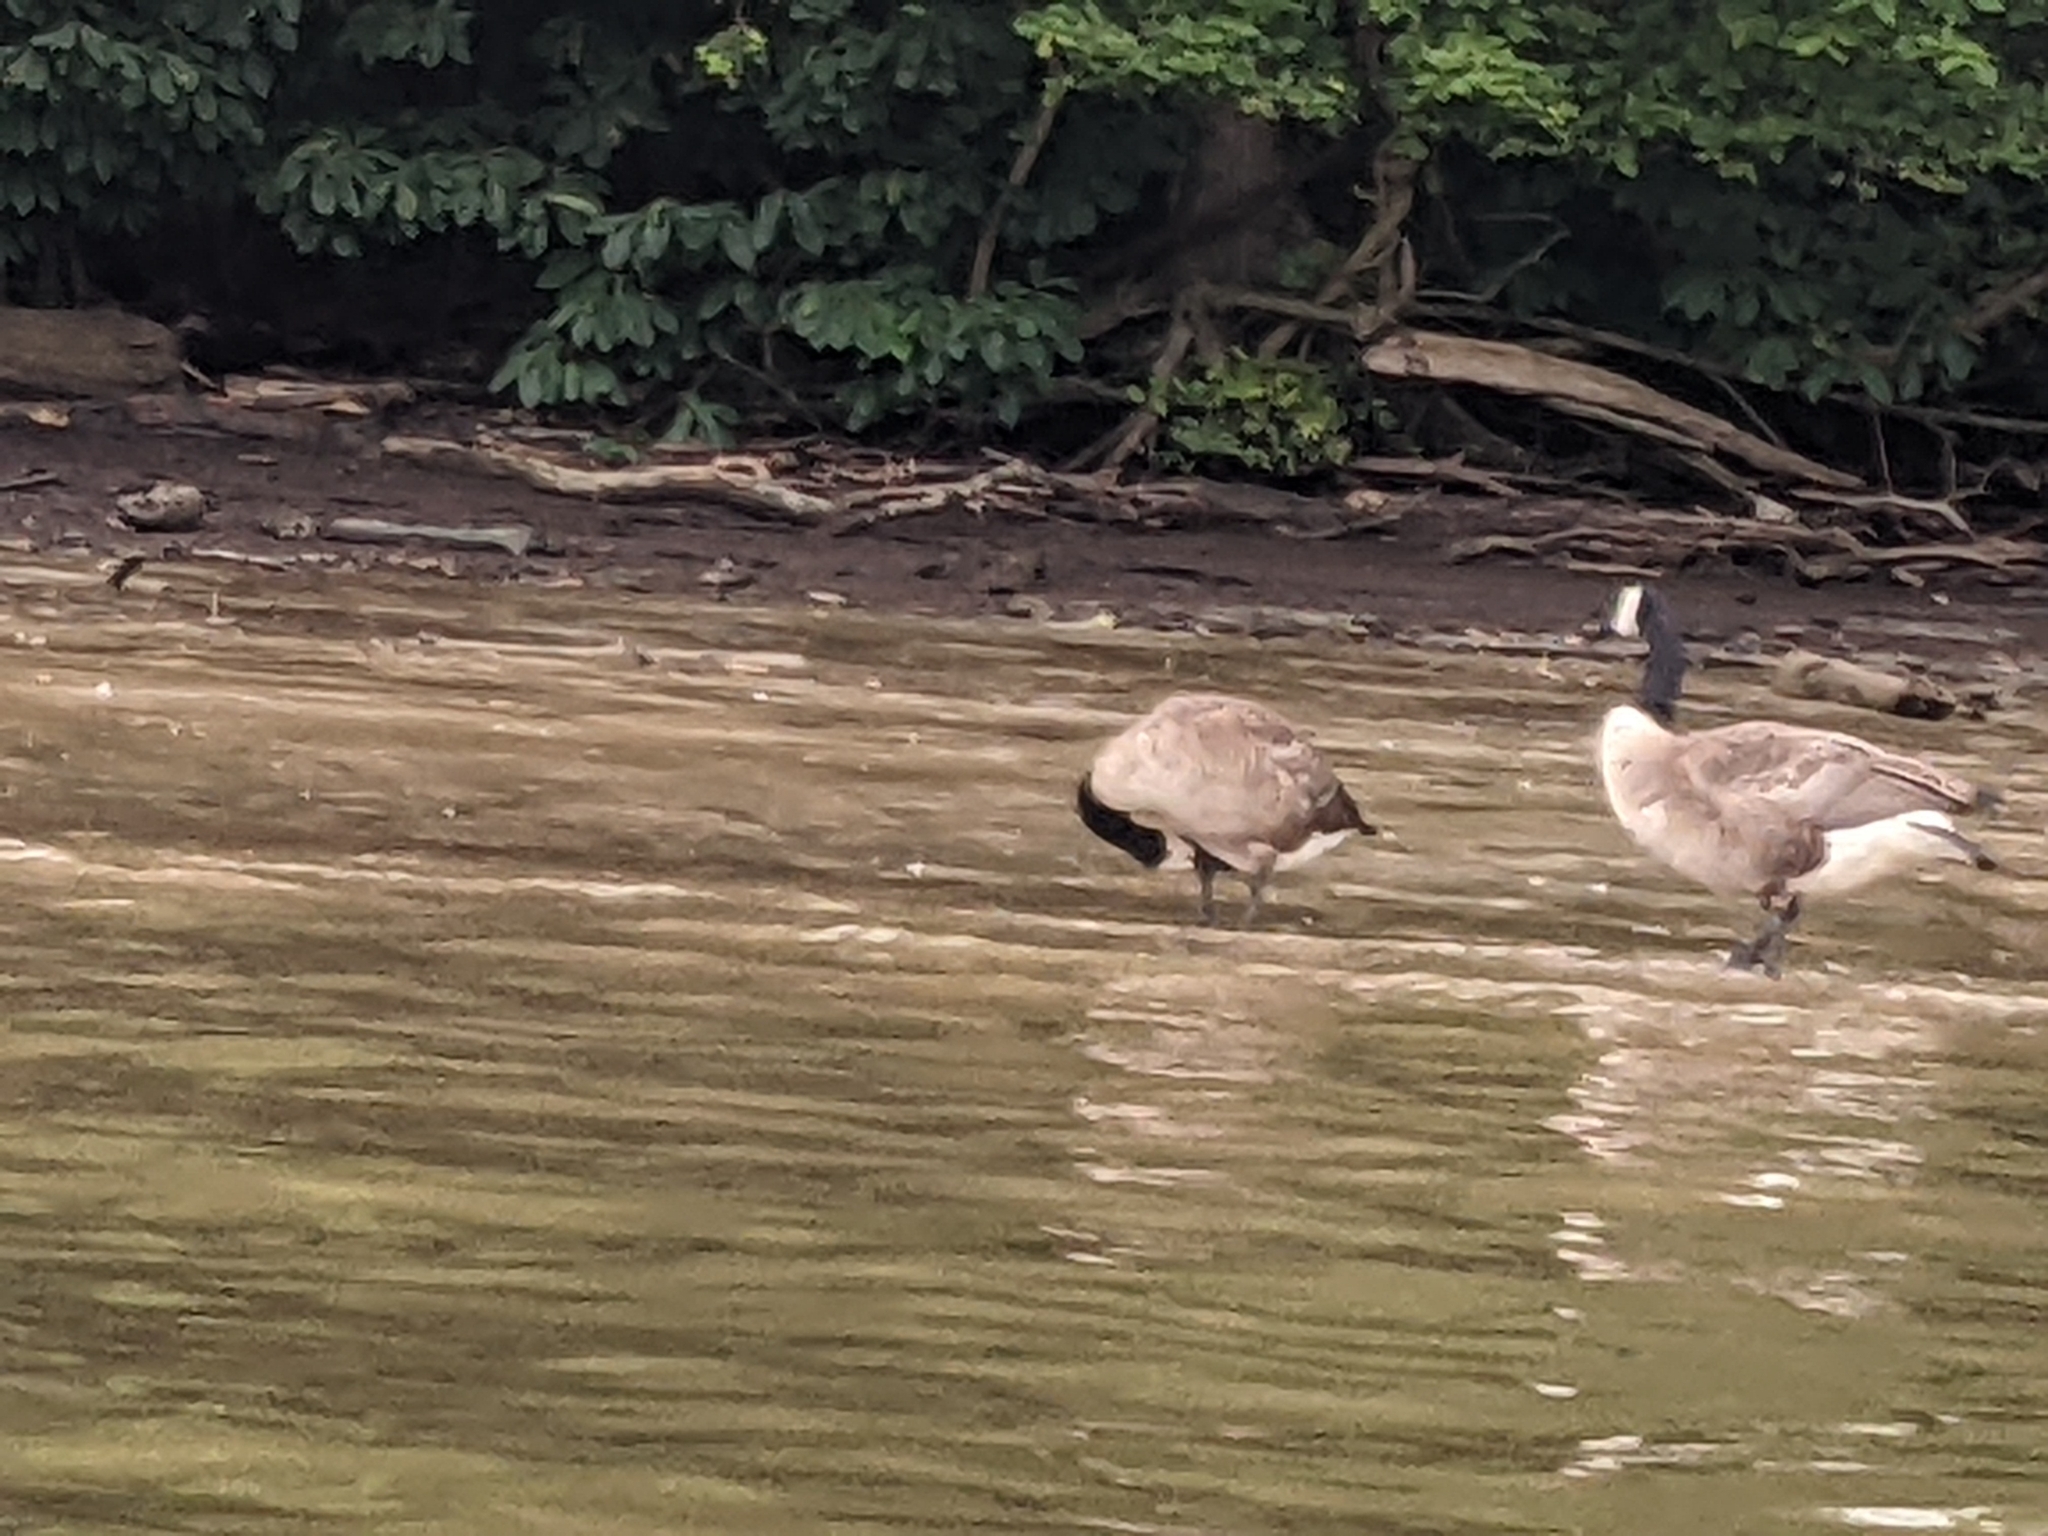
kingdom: Animalia
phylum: Chordata
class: Aves
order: Anseriformes
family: Anatidae
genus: Branta
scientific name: Branta canadensis
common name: Canada goose
